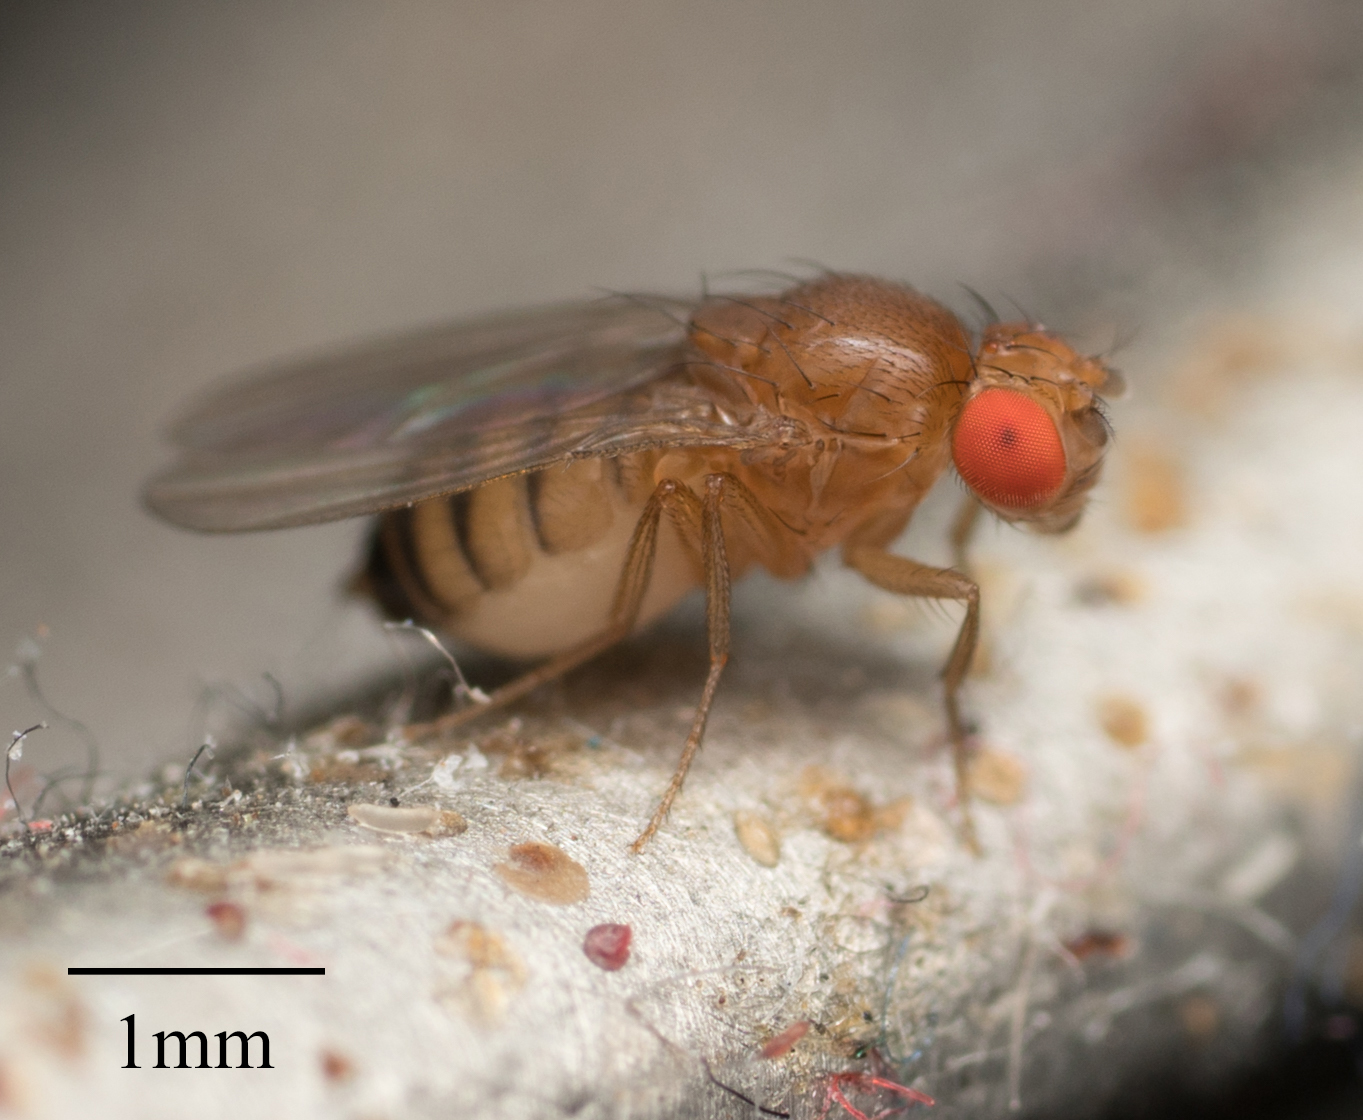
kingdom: Animalia
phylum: Arthropoda
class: Insecta
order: Diptera
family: Drosophilidae
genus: Drosophila
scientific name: Drosophila melanogaster
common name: Pomace fly
